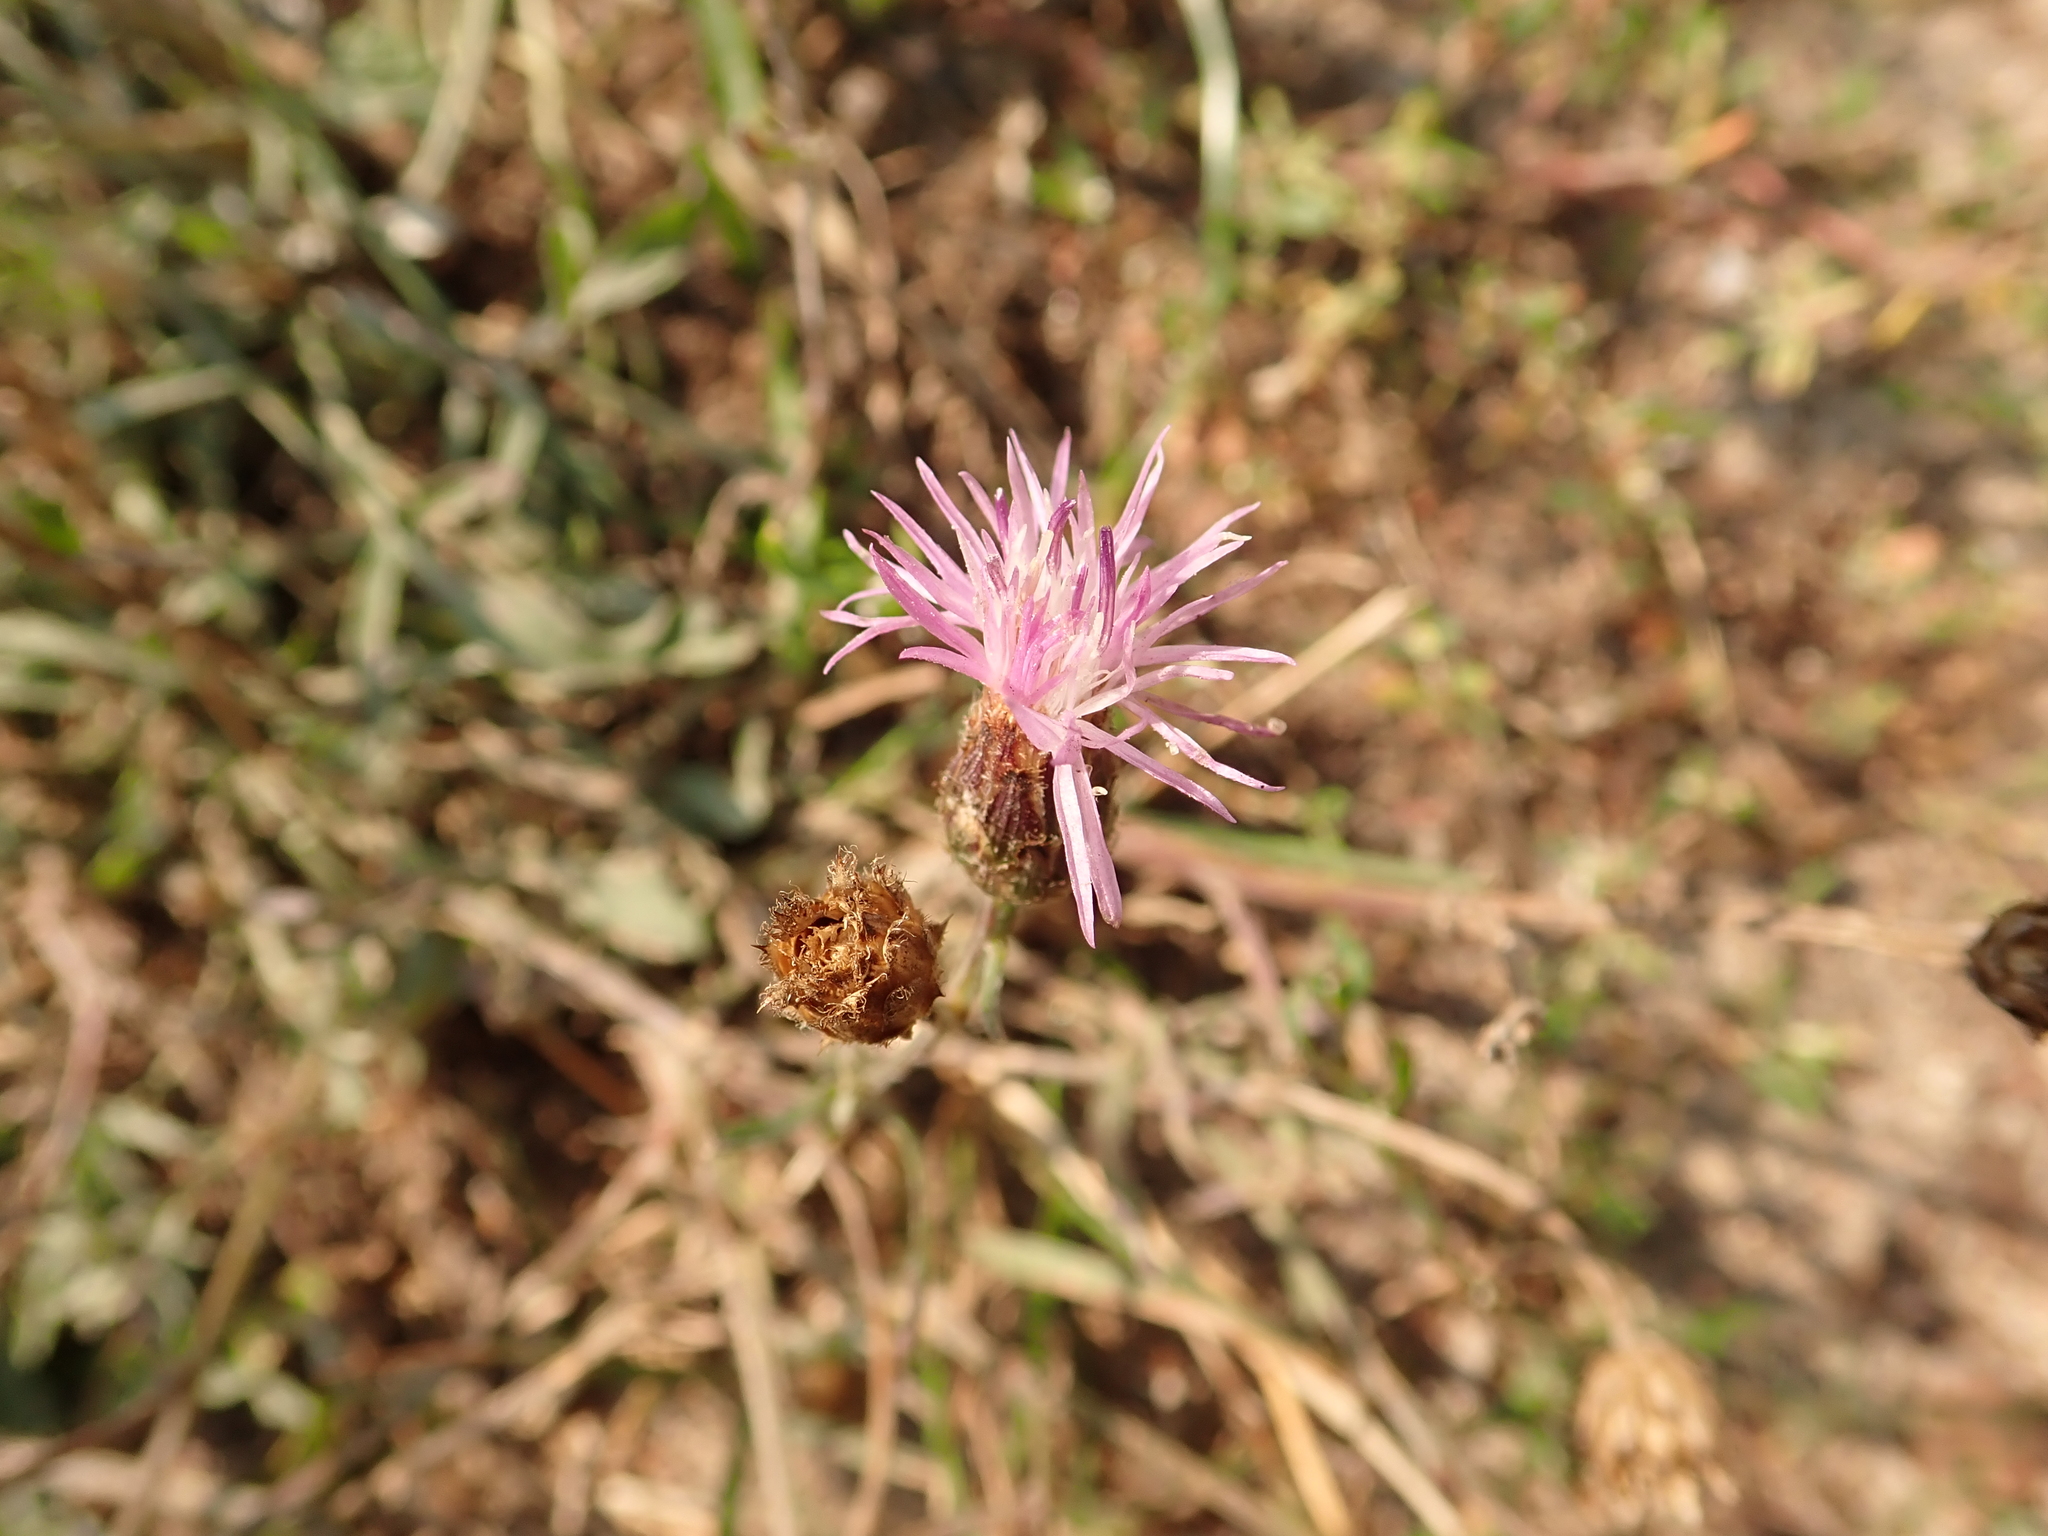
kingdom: Plantae
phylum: Tracheophyta
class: Magnoliopsida
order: Asterales
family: Asteraceae
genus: Centaurea
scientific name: Centaurea stoebe
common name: Spotted knapweed
